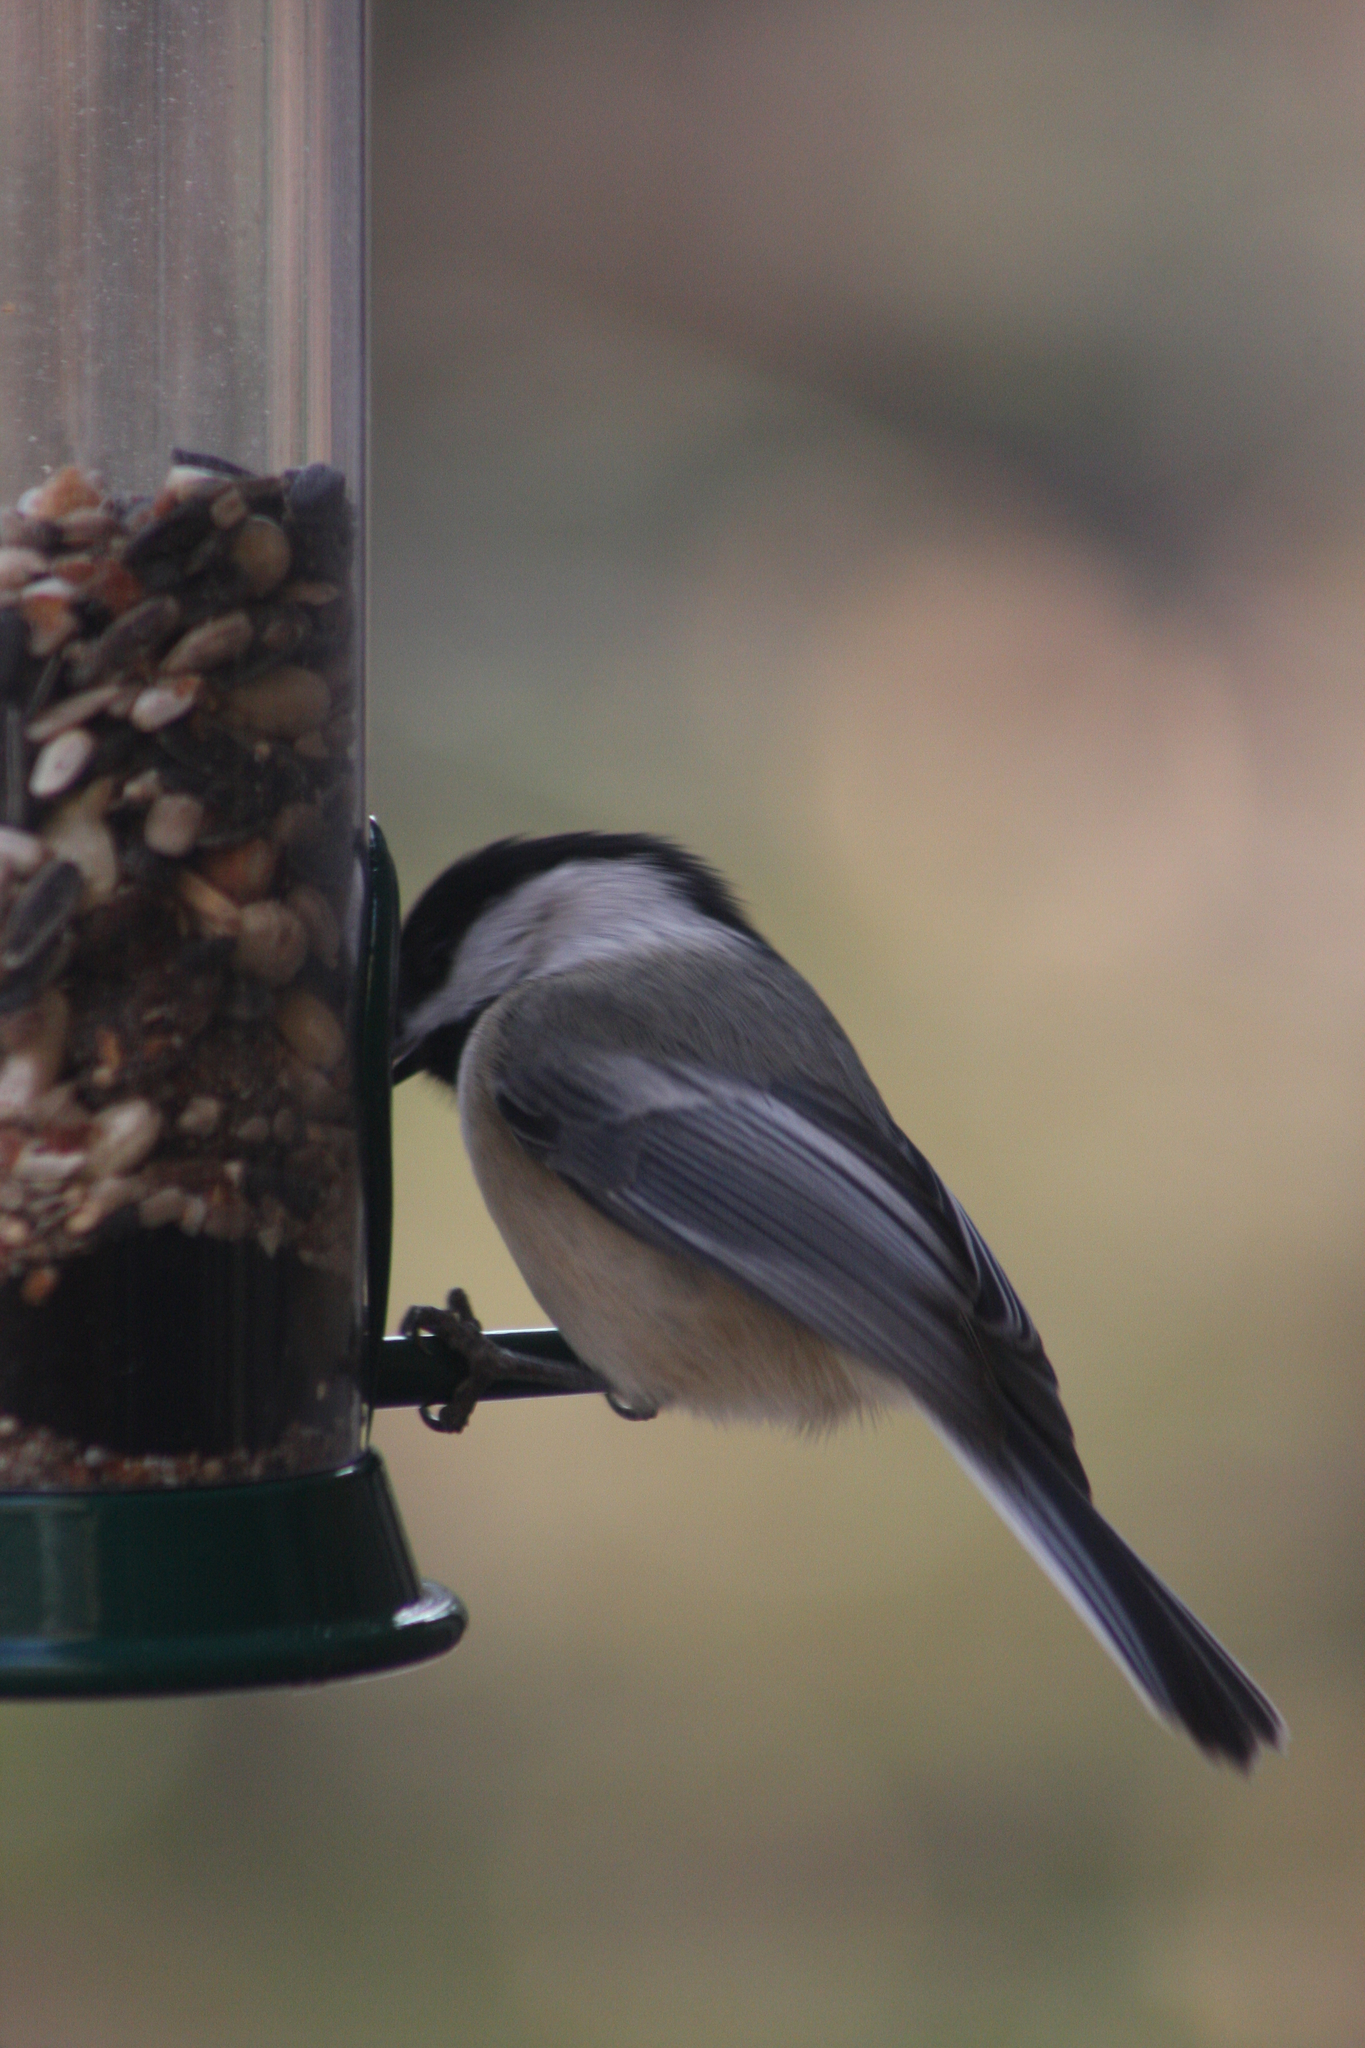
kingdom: Animalia
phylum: Chordata
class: Aves
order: Passeriformes
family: Paridae
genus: Poecile
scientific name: Poecile atricapillus
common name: Black-capped chickadee
